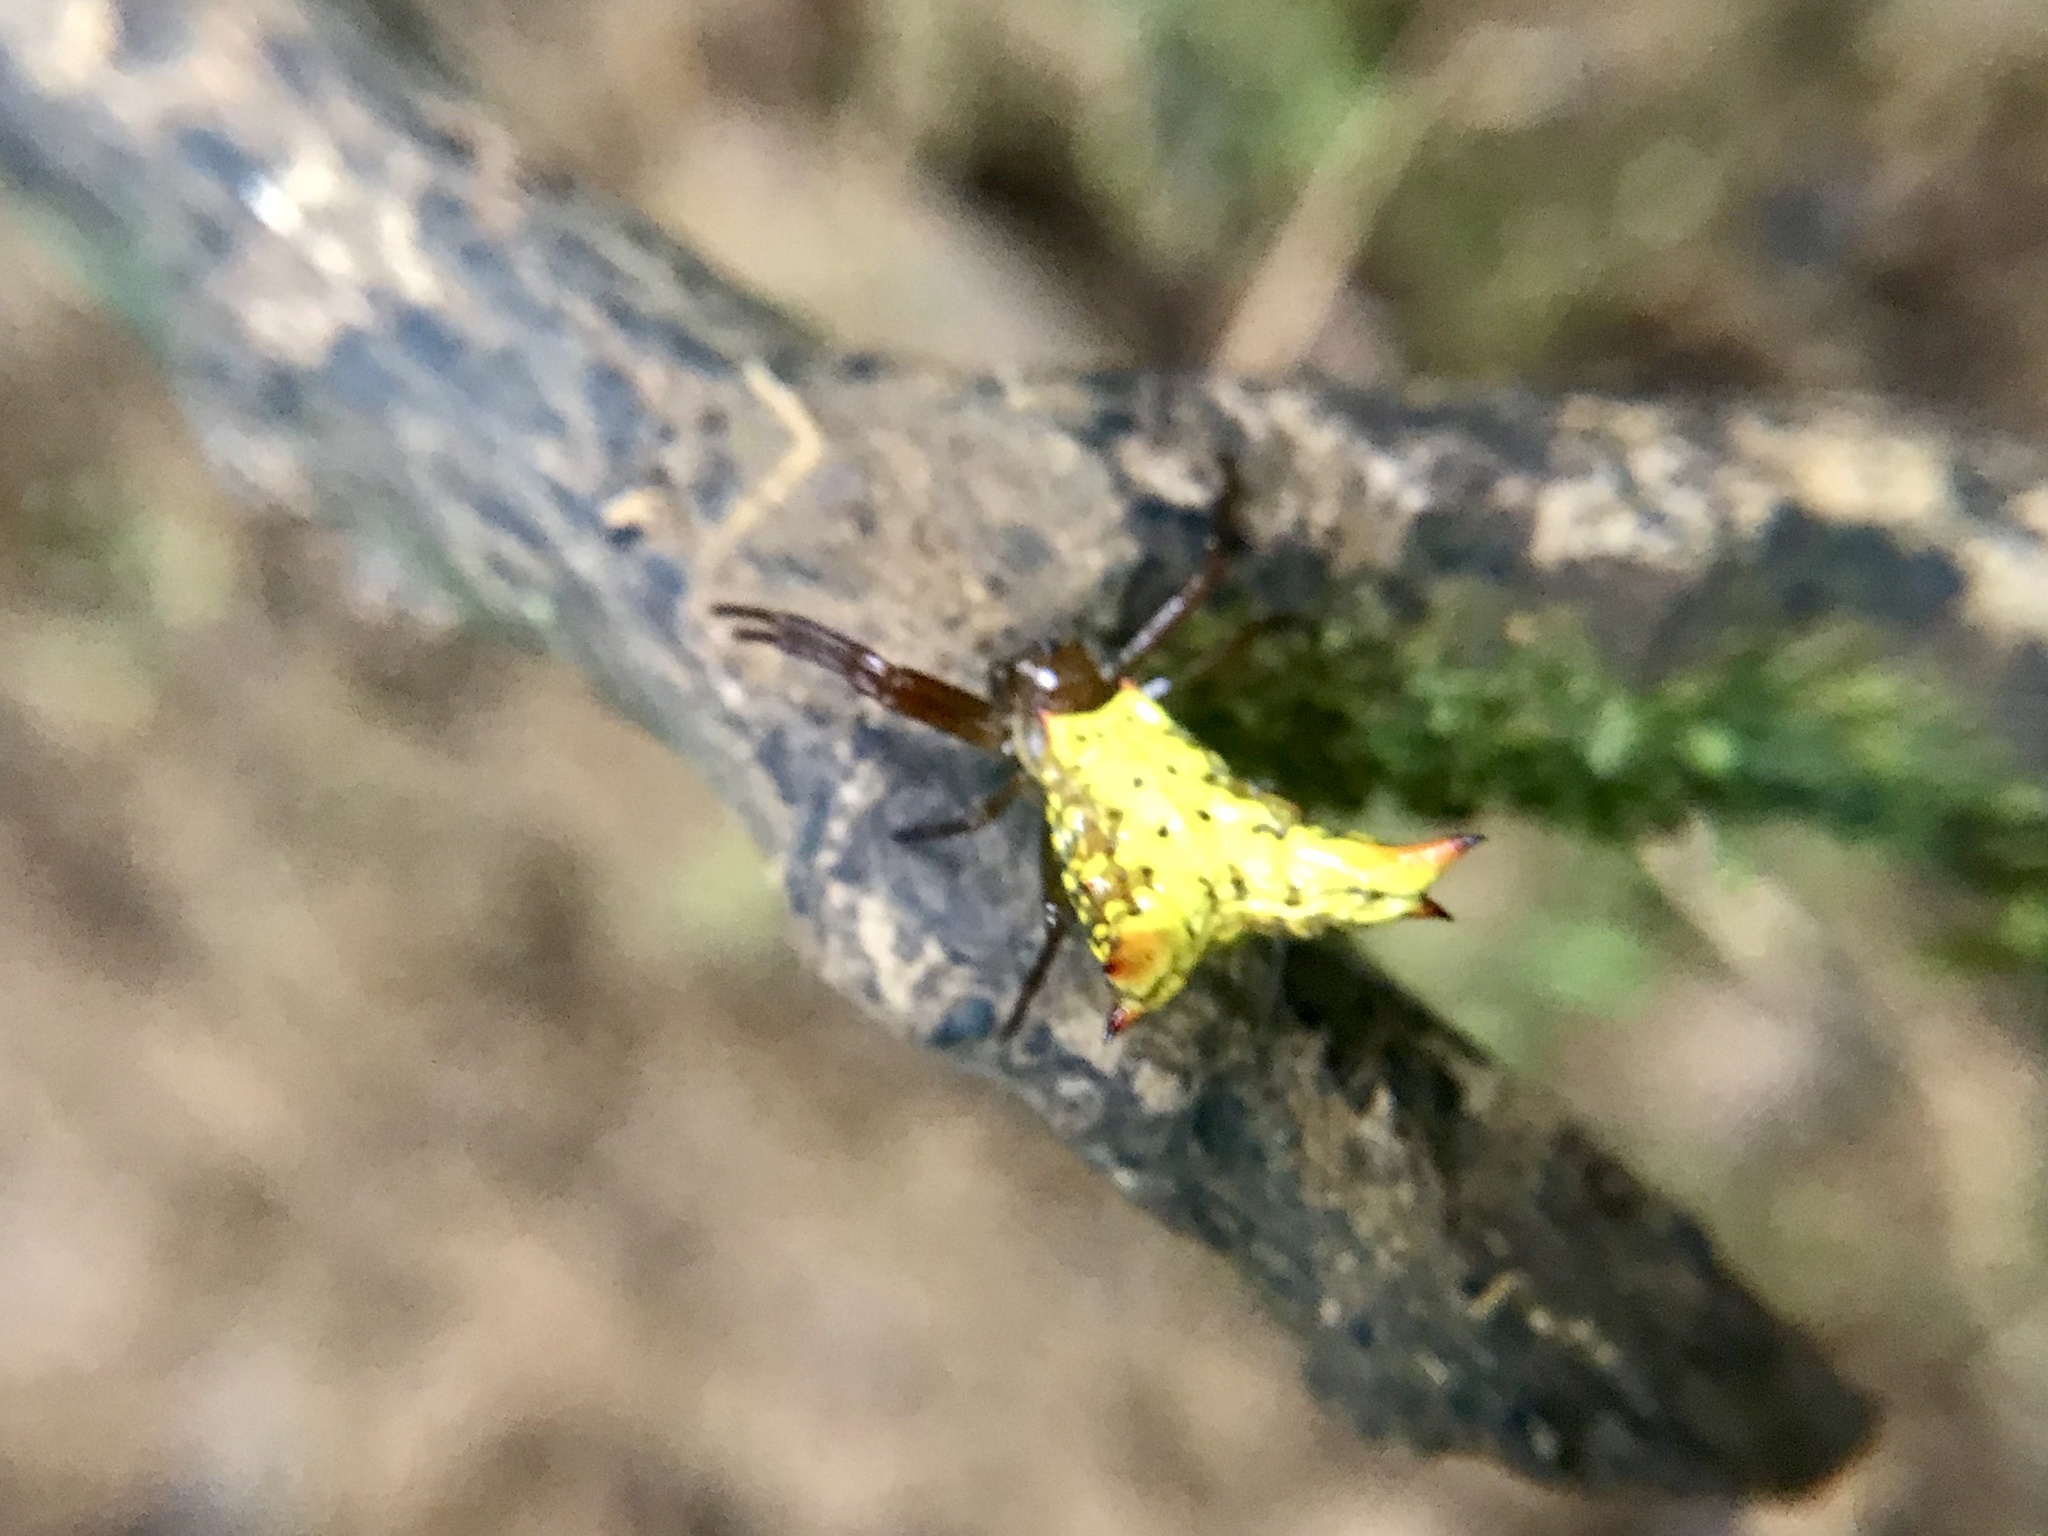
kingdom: Animalia
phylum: Arthropoda
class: Arachnida
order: Araneae
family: Araneidae
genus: Micrathena
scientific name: Micrathena lucasi
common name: Orb weavers
